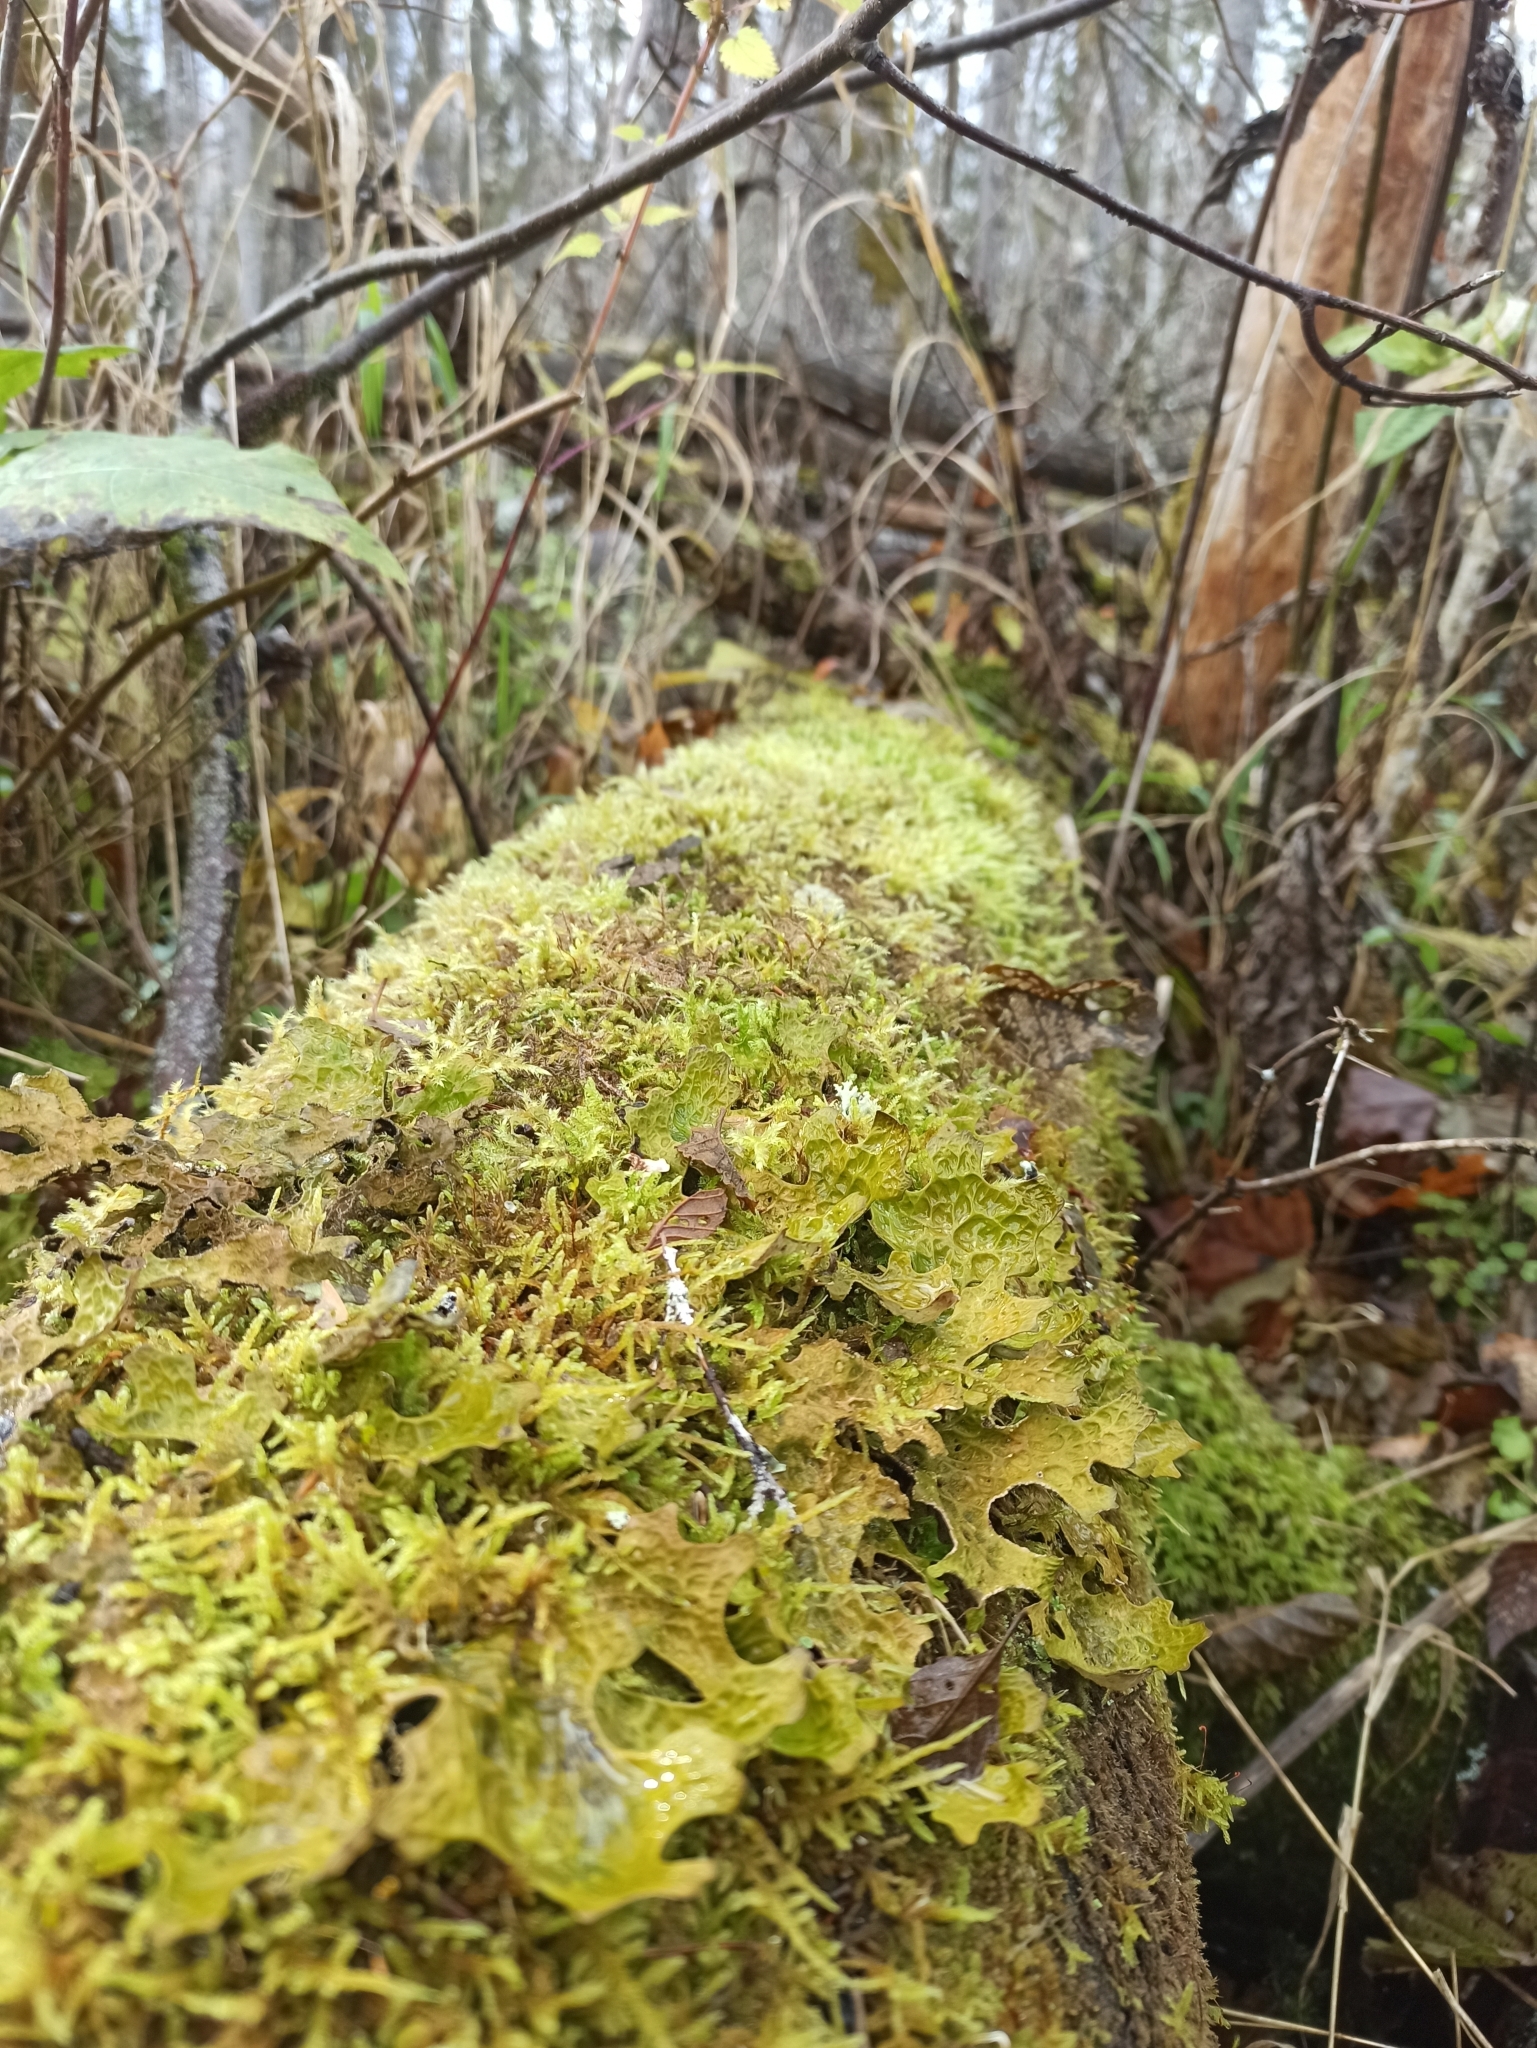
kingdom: Fungi
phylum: Ascomycota
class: Lecanoromycetes
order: Peltigerales
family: Lobariaceae
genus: Lobaria
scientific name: Lobaria pulmonaria
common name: Lungwort
